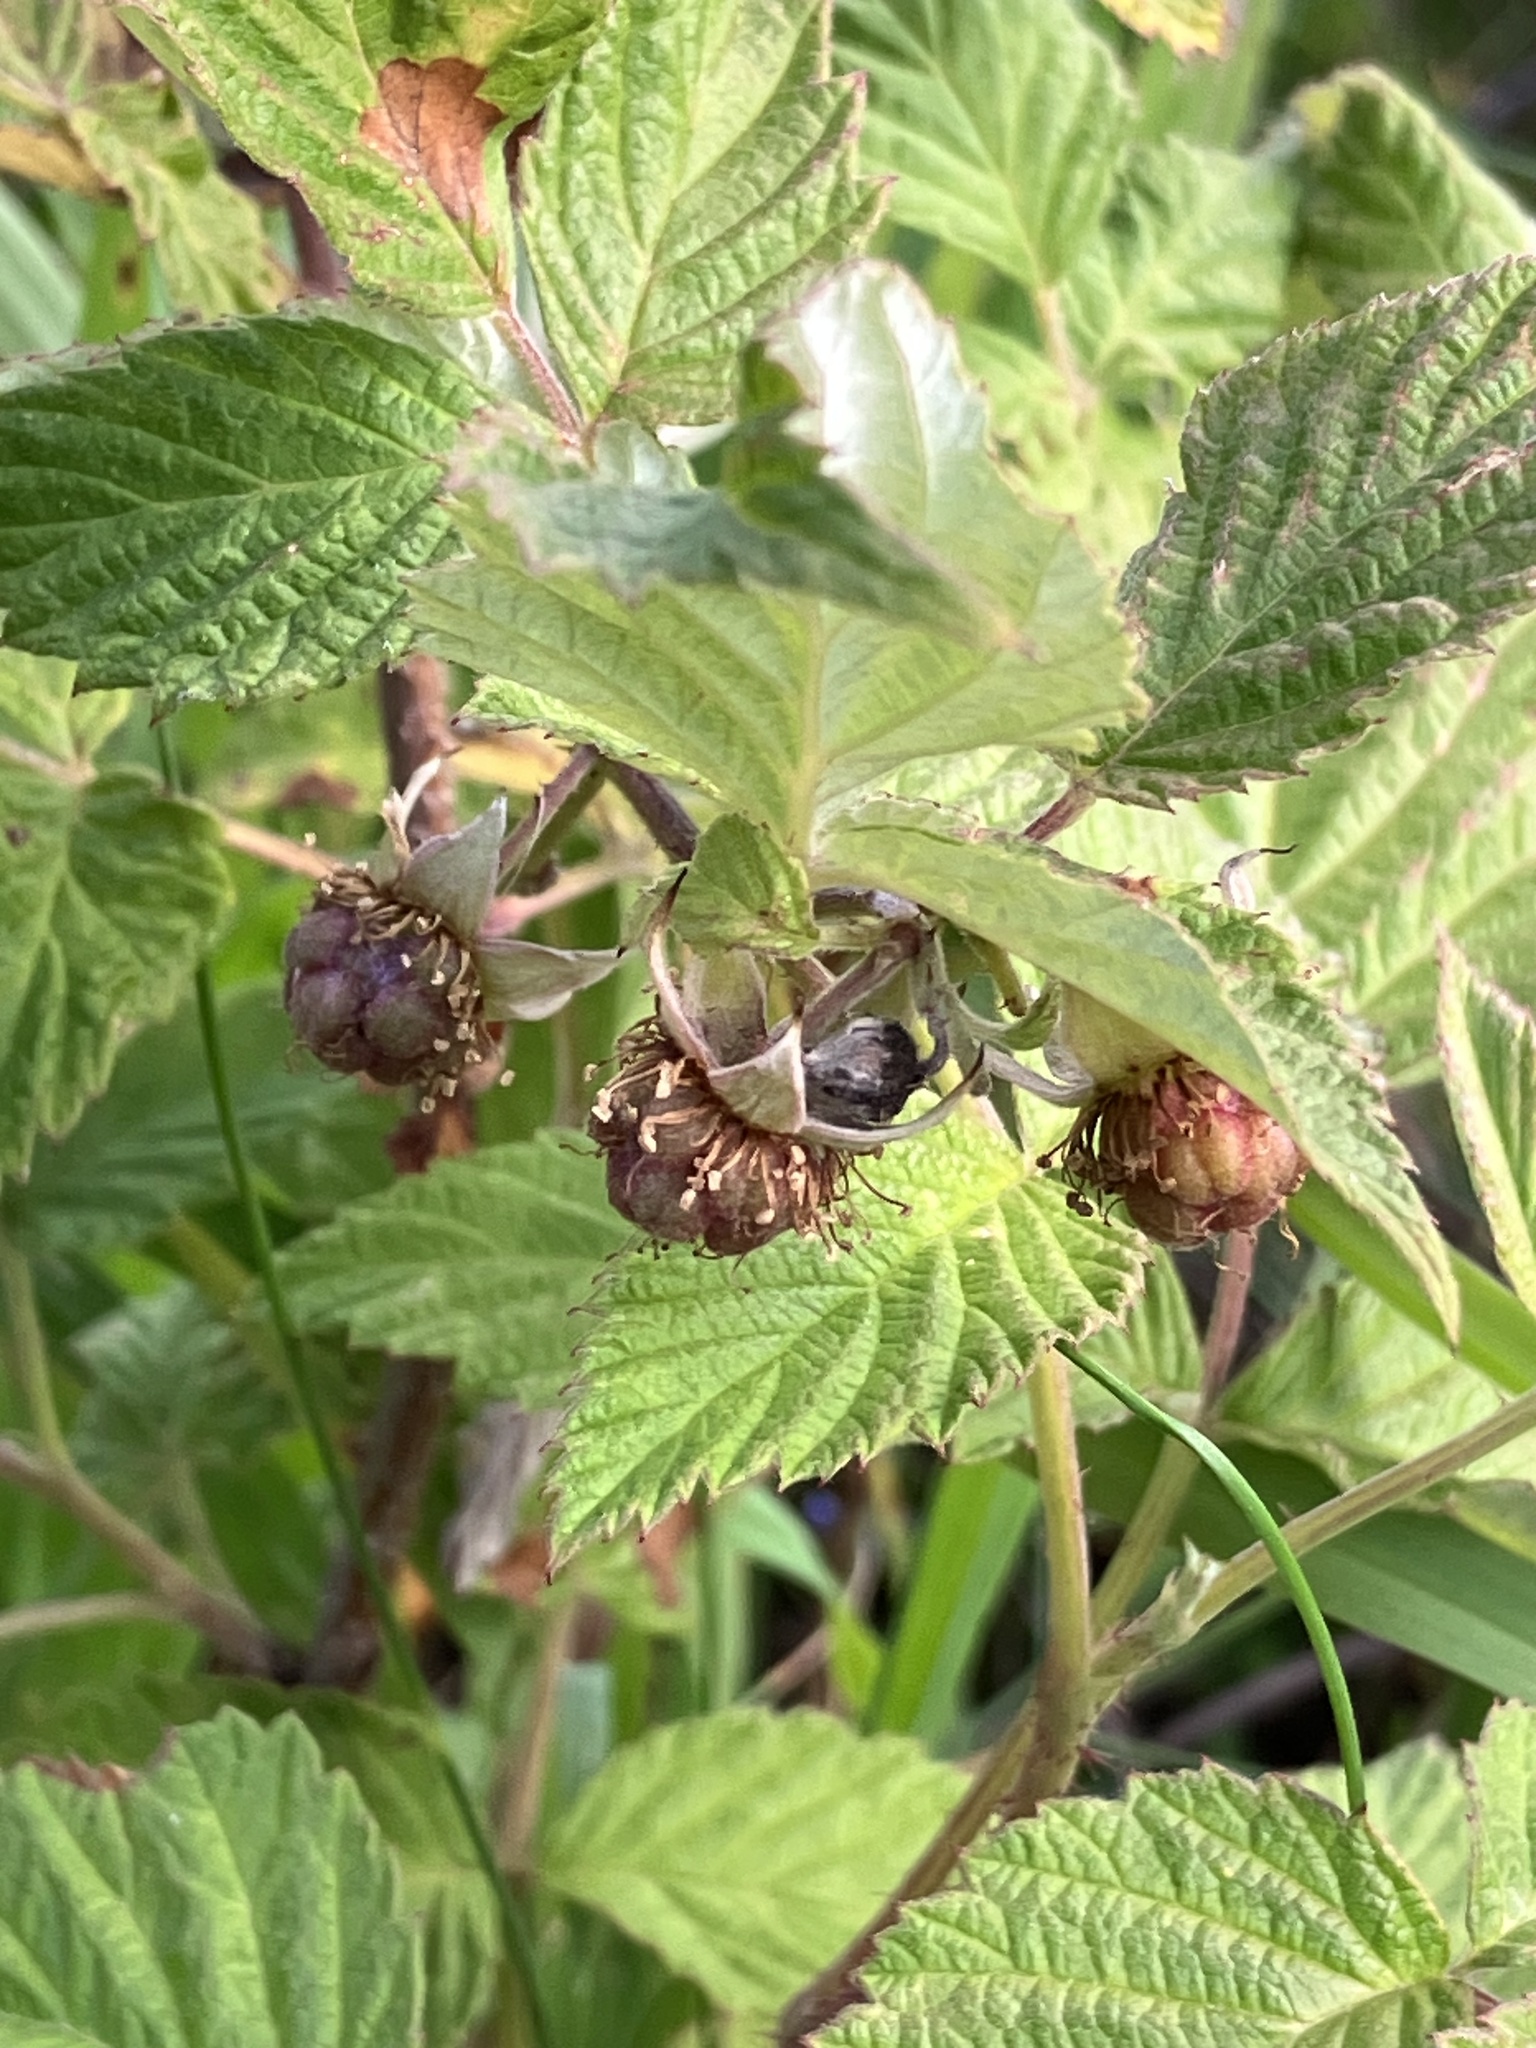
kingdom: Plantae
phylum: Tracheophyta
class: Magnoliopsida
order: Rosales
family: Rosaceae
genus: Rubus
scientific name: Rubus idaeus
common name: Raspberry
